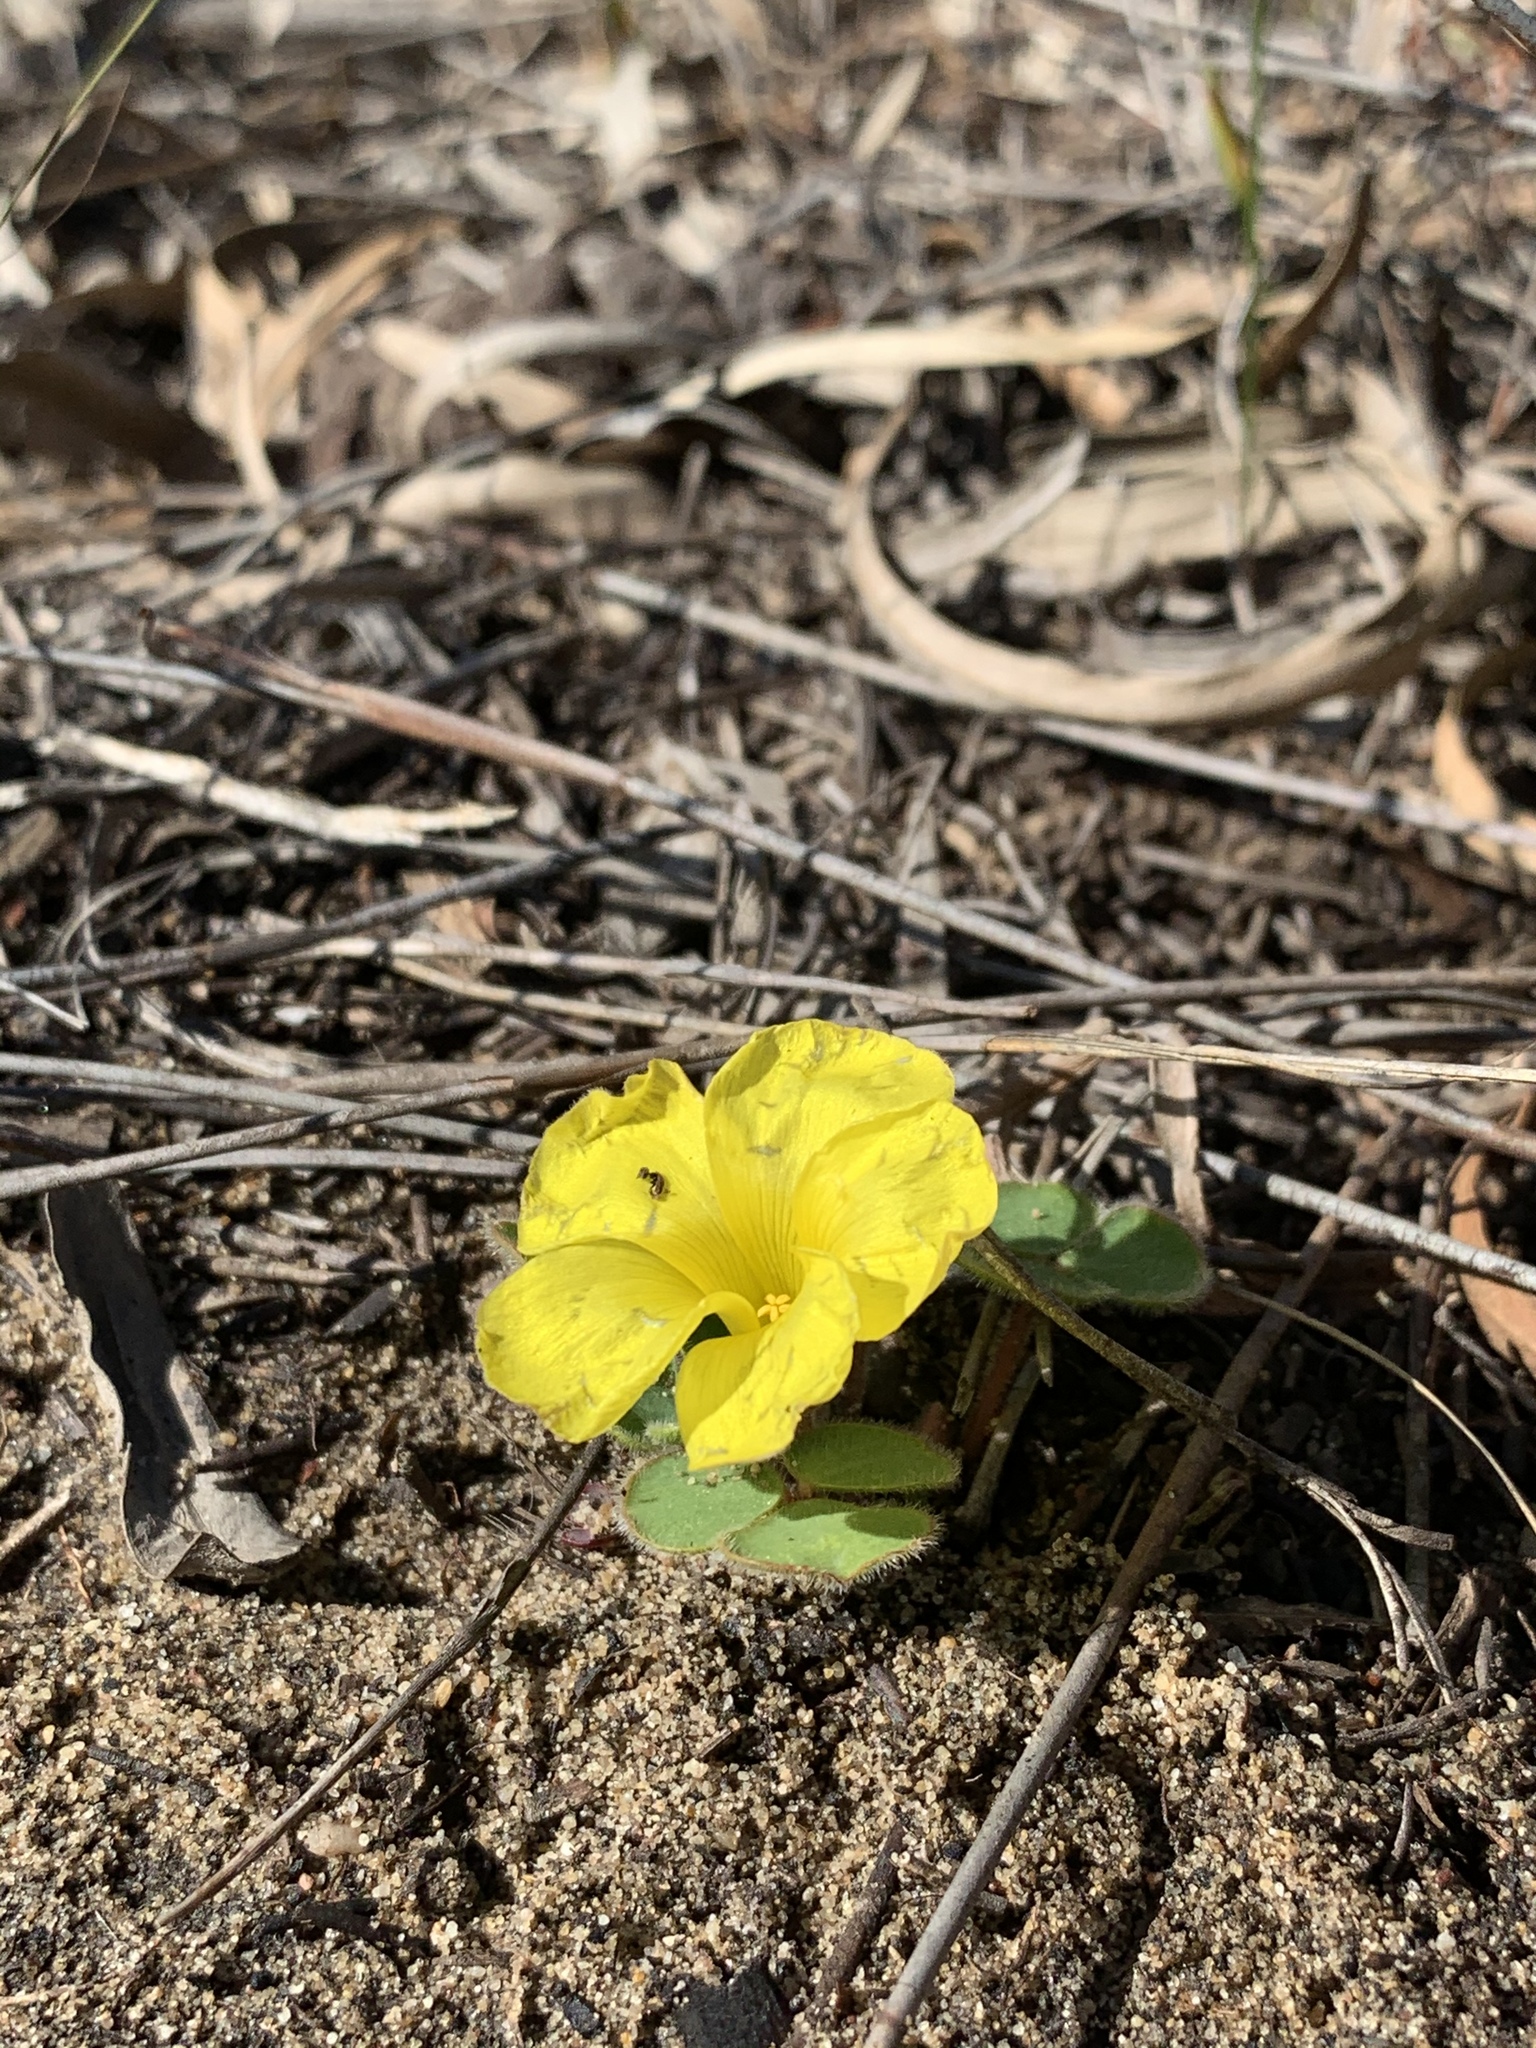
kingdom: Plantae
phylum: Tracheophyta
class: Magnoliopsida
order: Oxalidales
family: Oxalidaceae
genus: Oxalis
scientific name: Oxalis luteola
